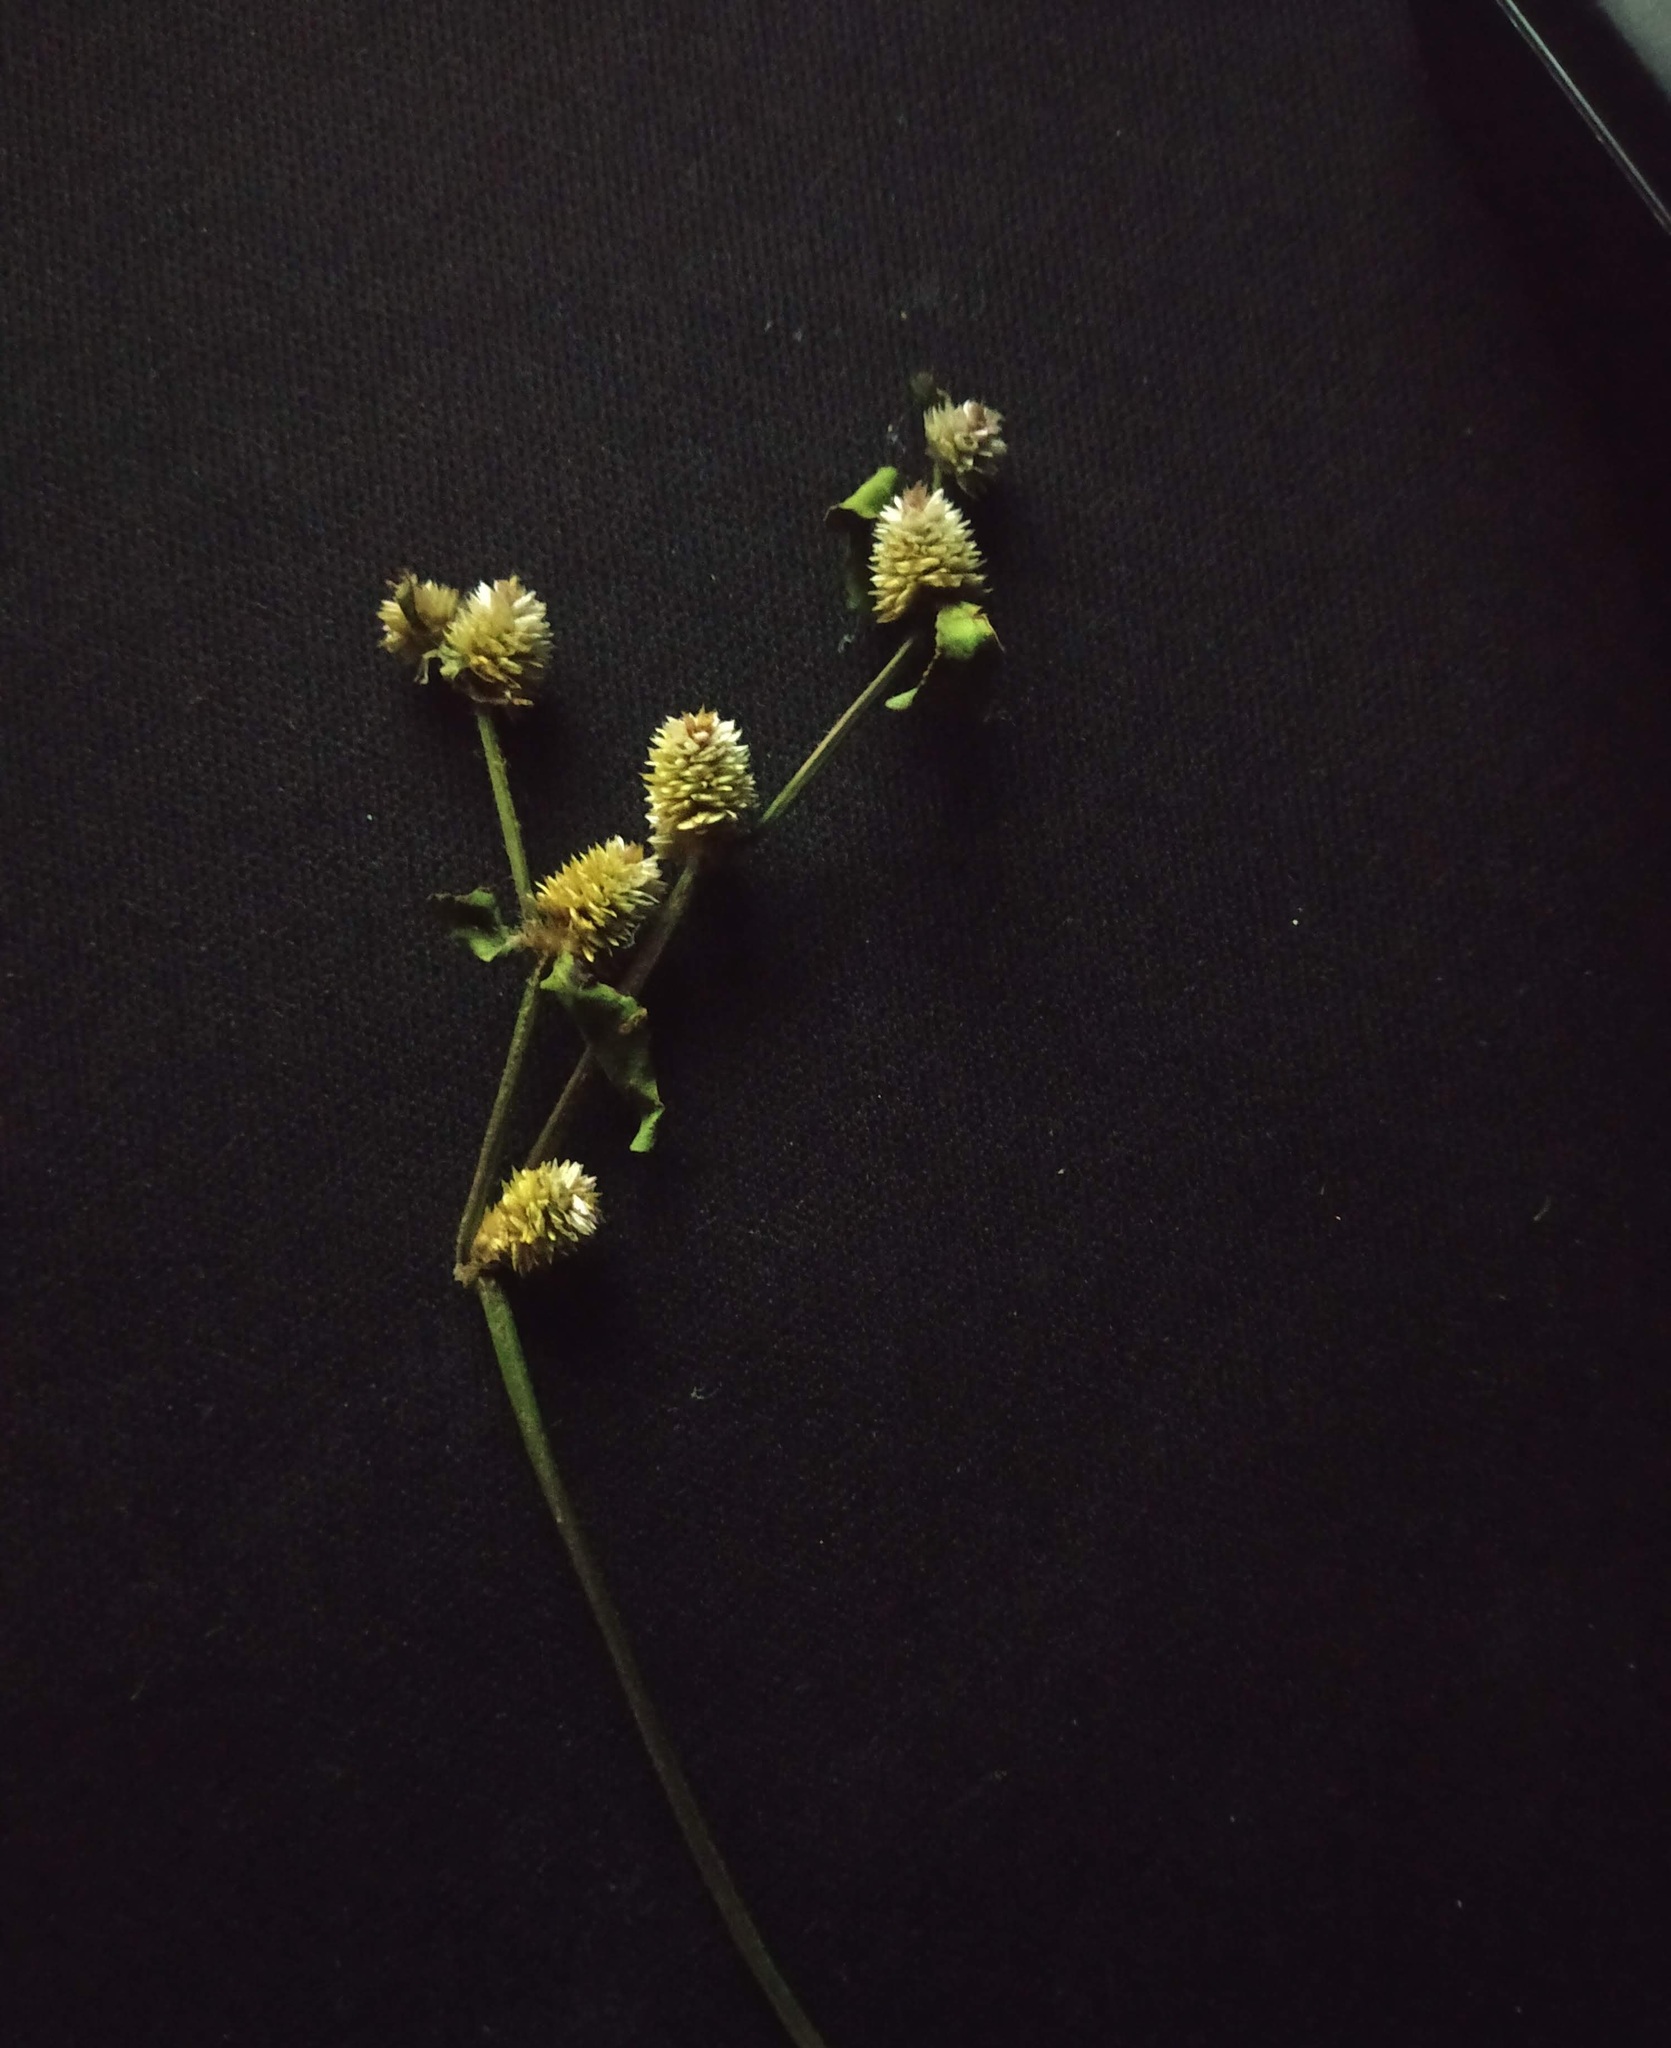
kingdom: Plantae
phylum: Tracheophyta
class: Magnoliopsida
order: Caryophyllales
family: Amaranthaceae
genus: Alternanthera
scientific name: Alternanthera sessilis
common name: Sessile joyweed
